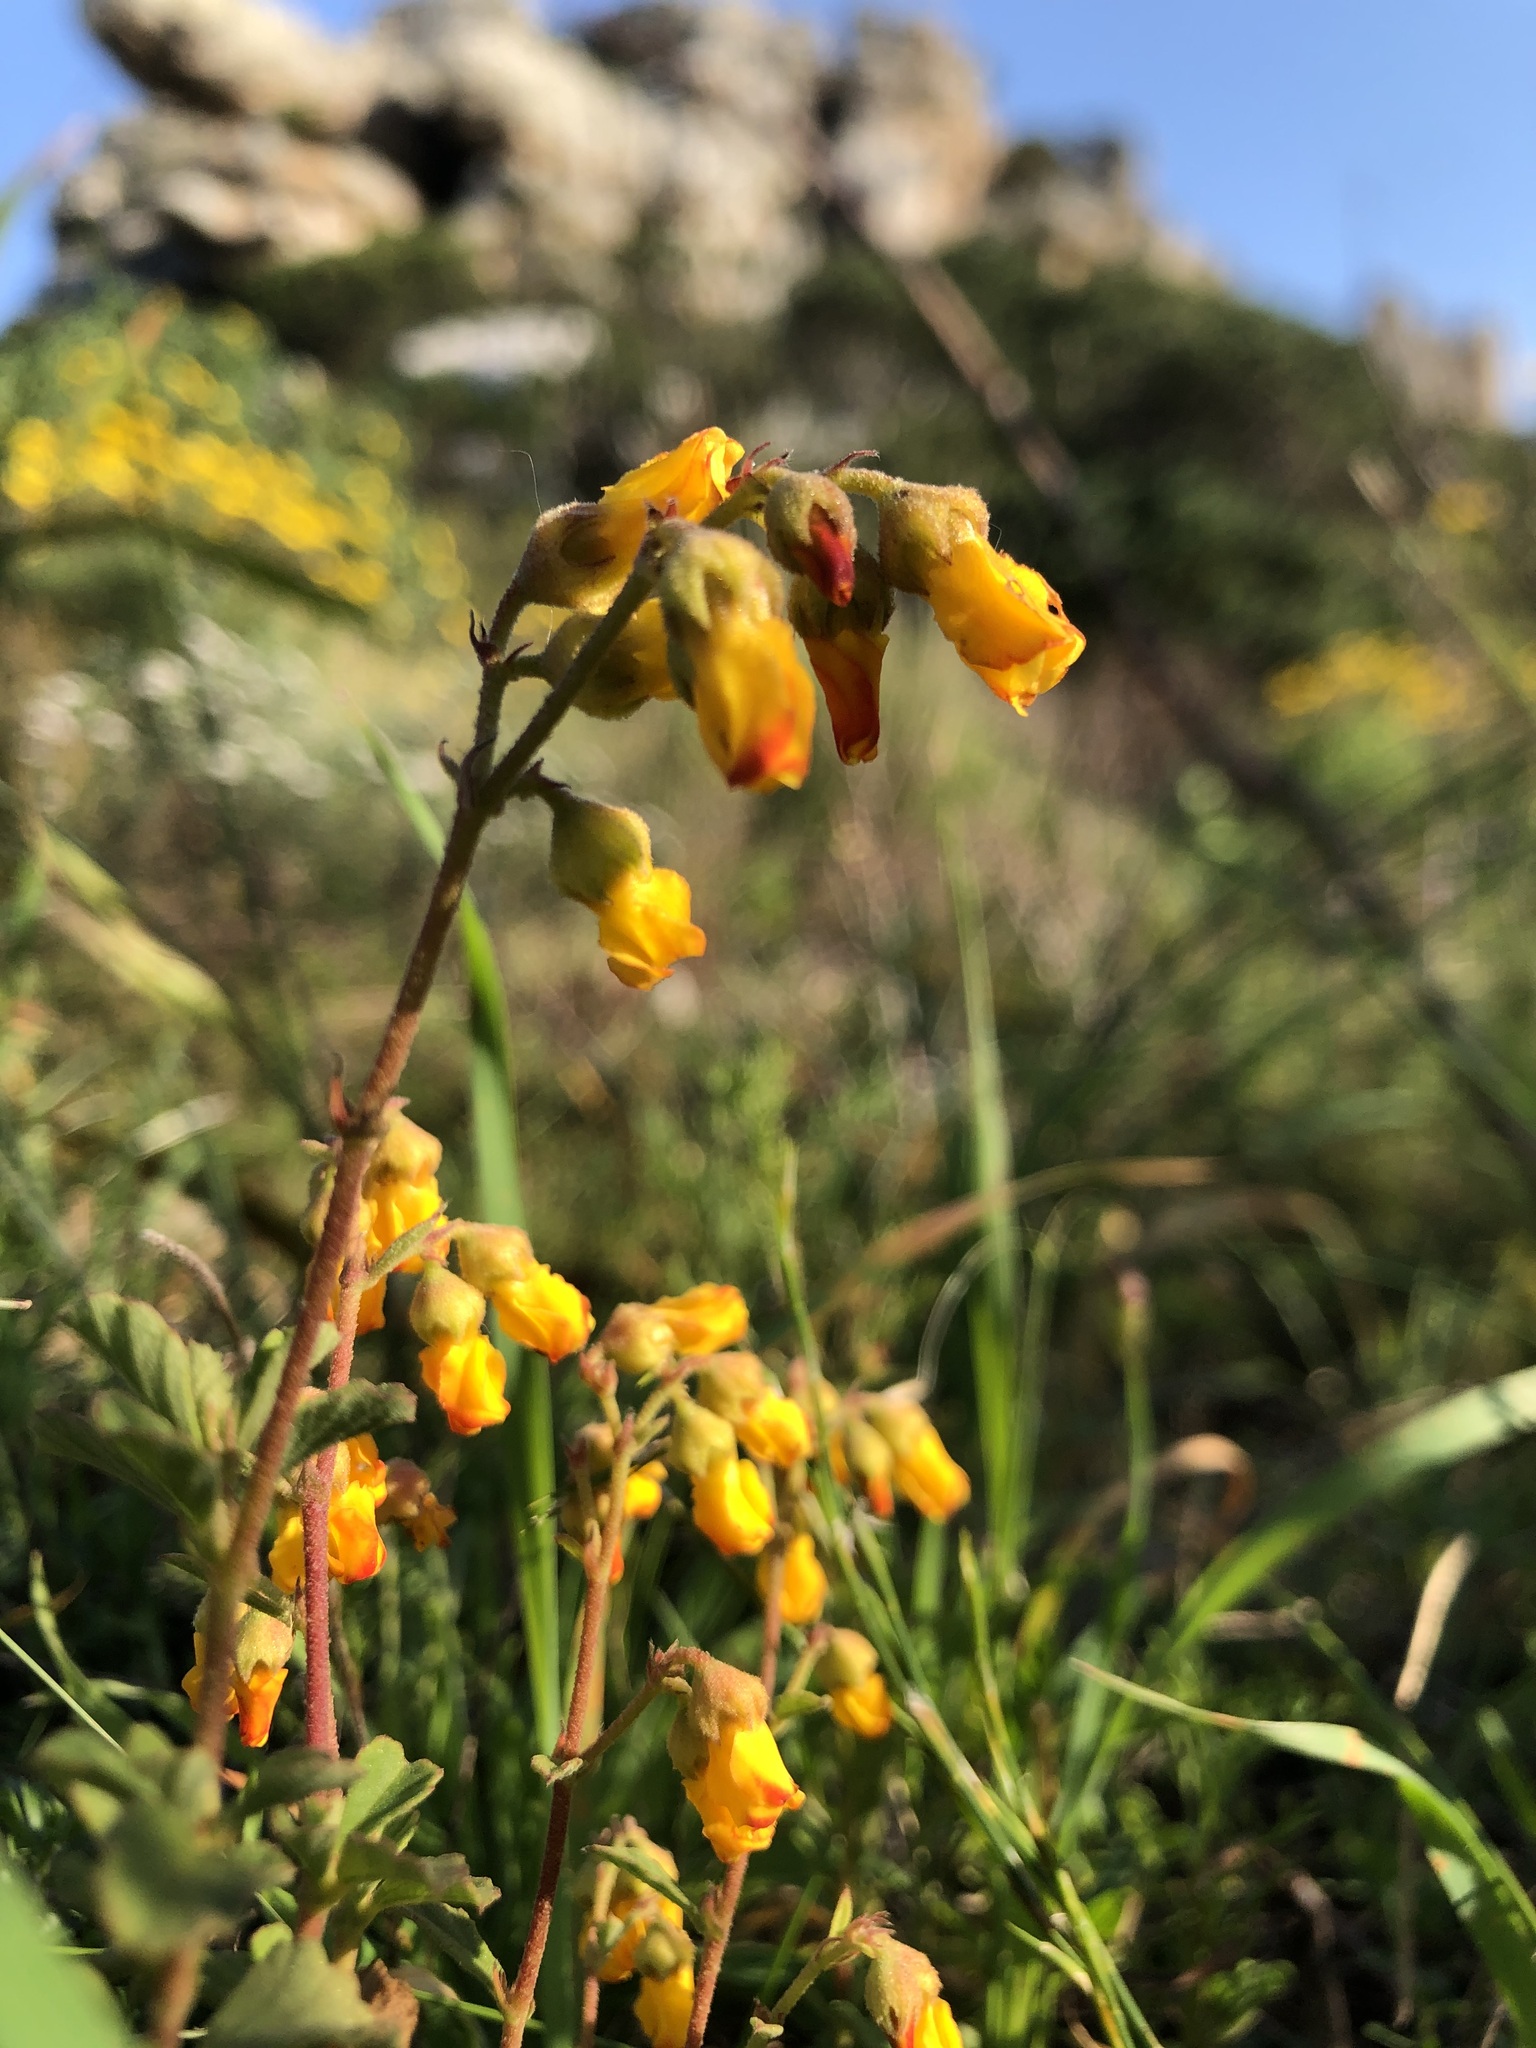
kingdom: Plantae
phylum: Tracheophyta
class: Magnoliopsida
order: Malvales
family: Malvaceae
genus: Hermannia
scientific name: Hermannia multiflora
